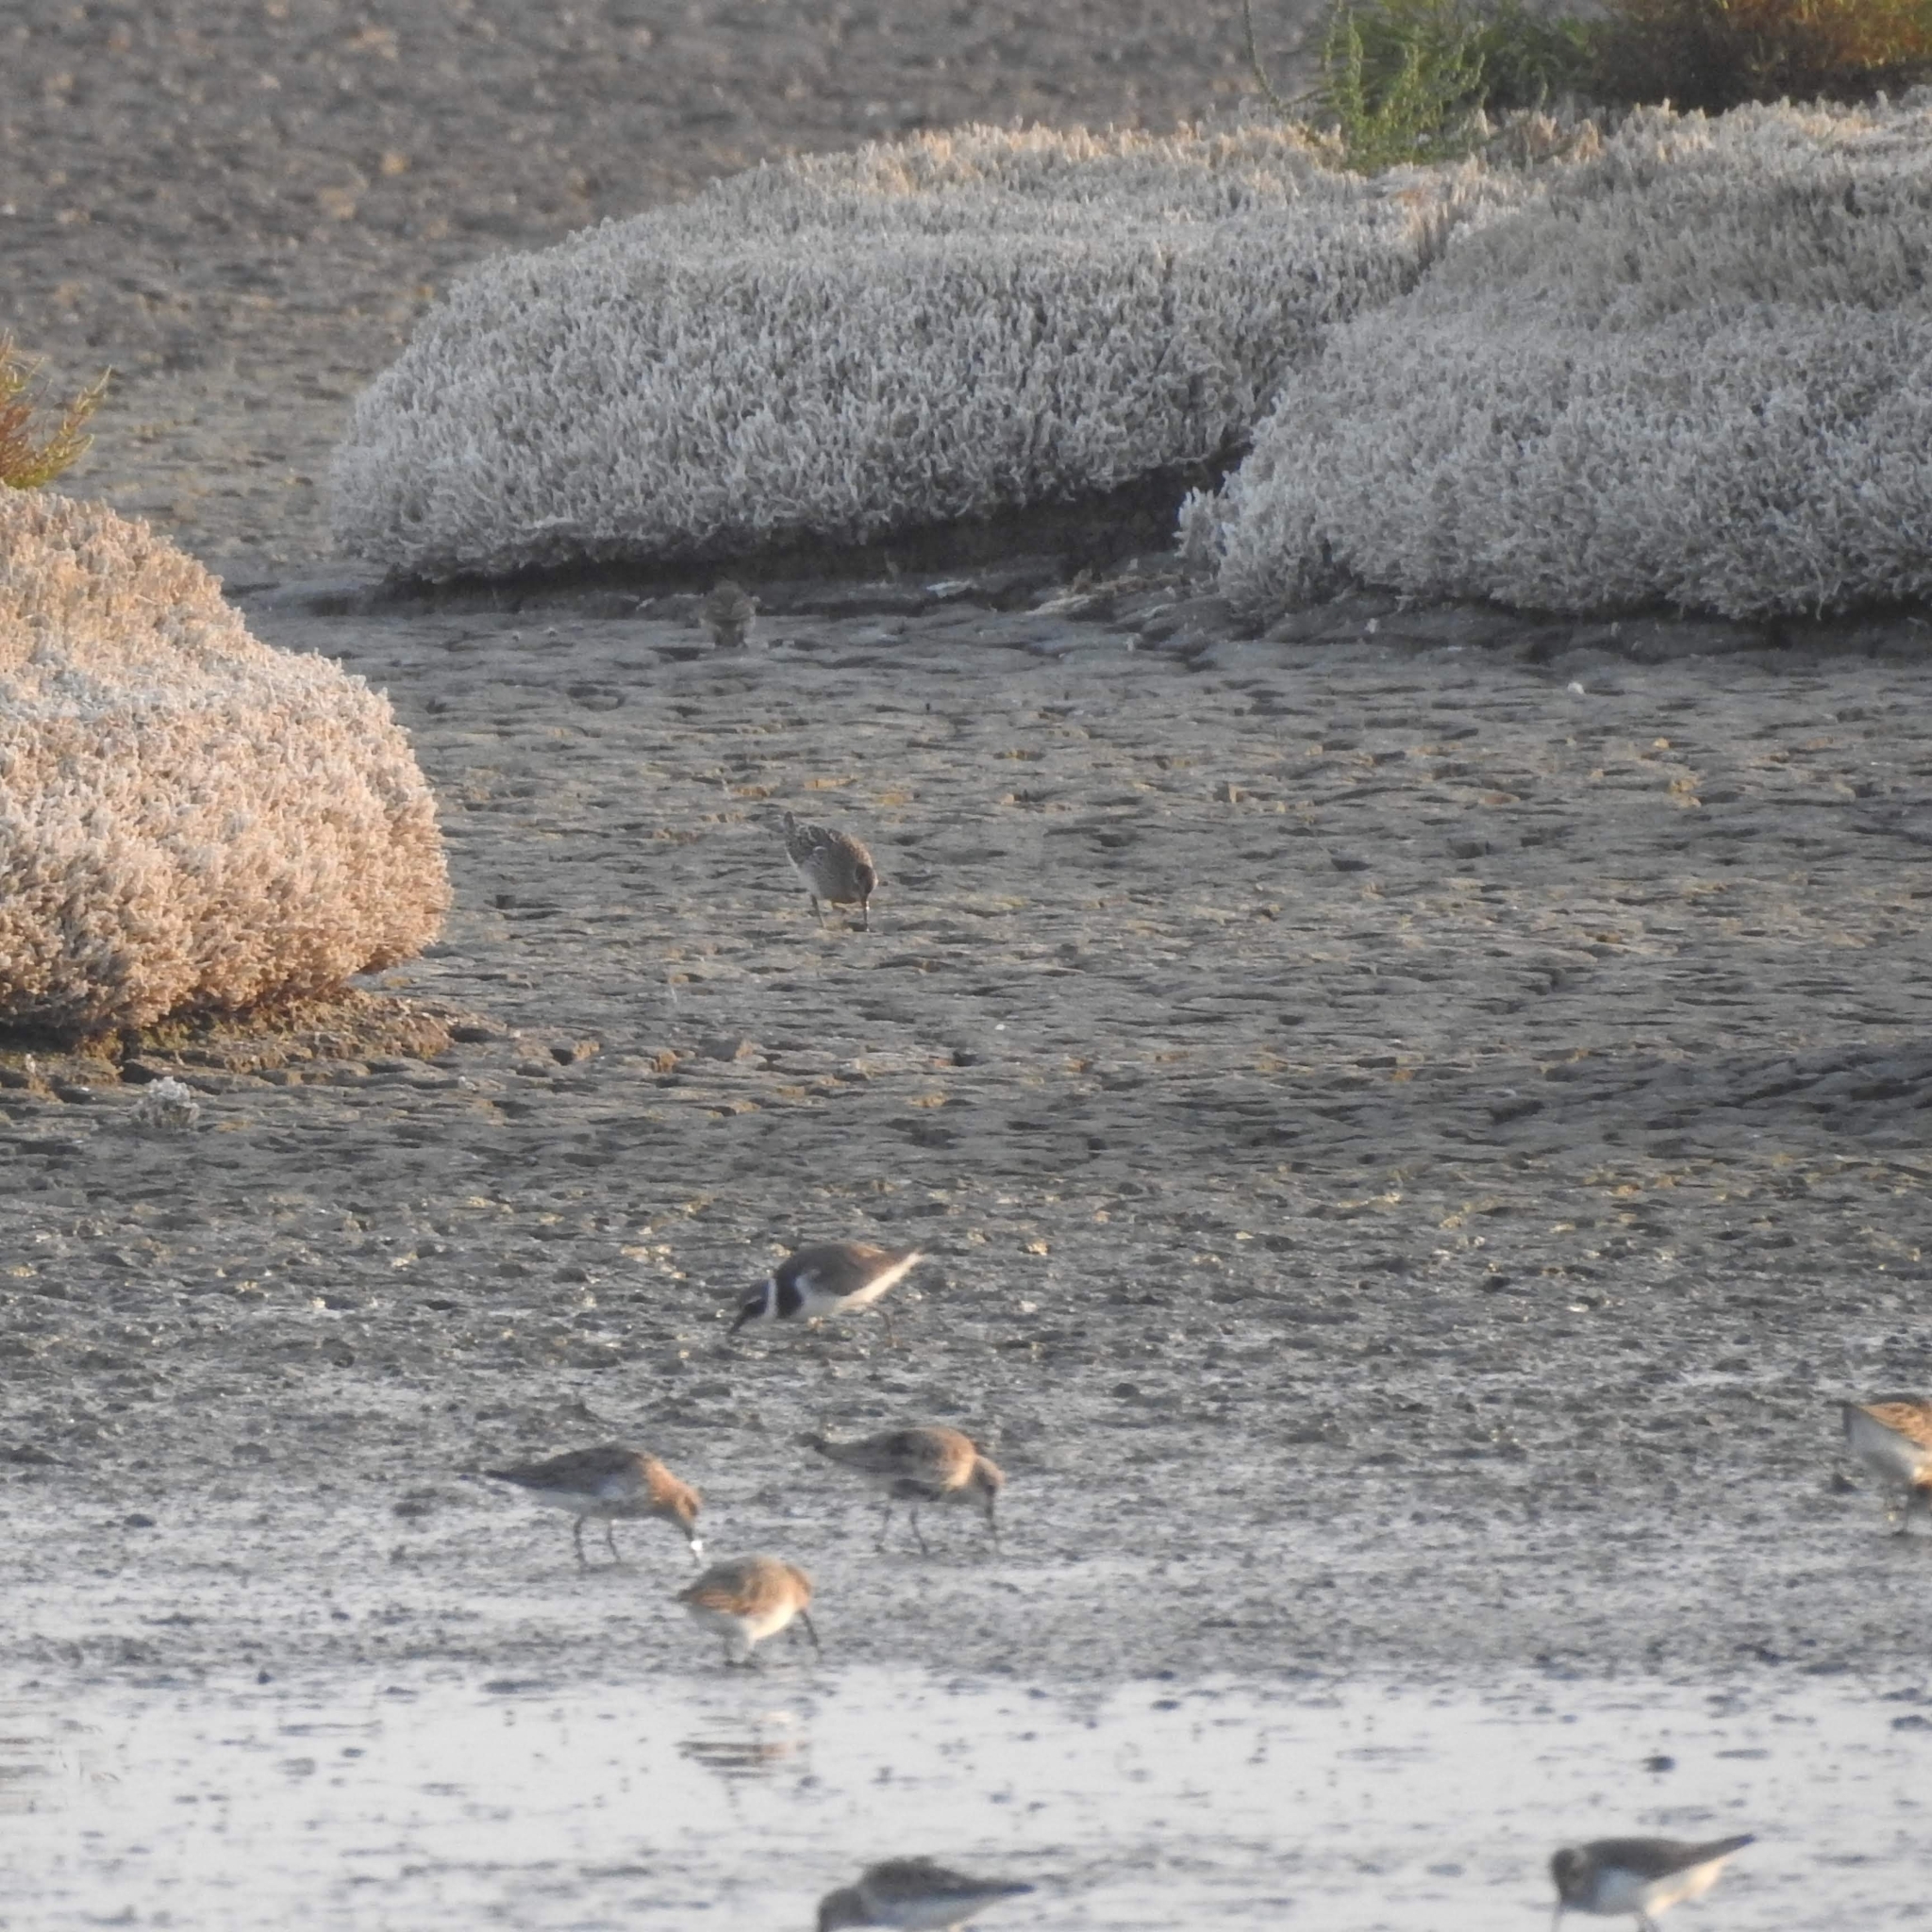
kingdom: Animalia
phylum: Chordata
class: Aves
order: Charadriiformes
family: Scolopacidae
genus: Calidris
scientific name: Calidris melanotos
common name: Pectoral sandpiper
